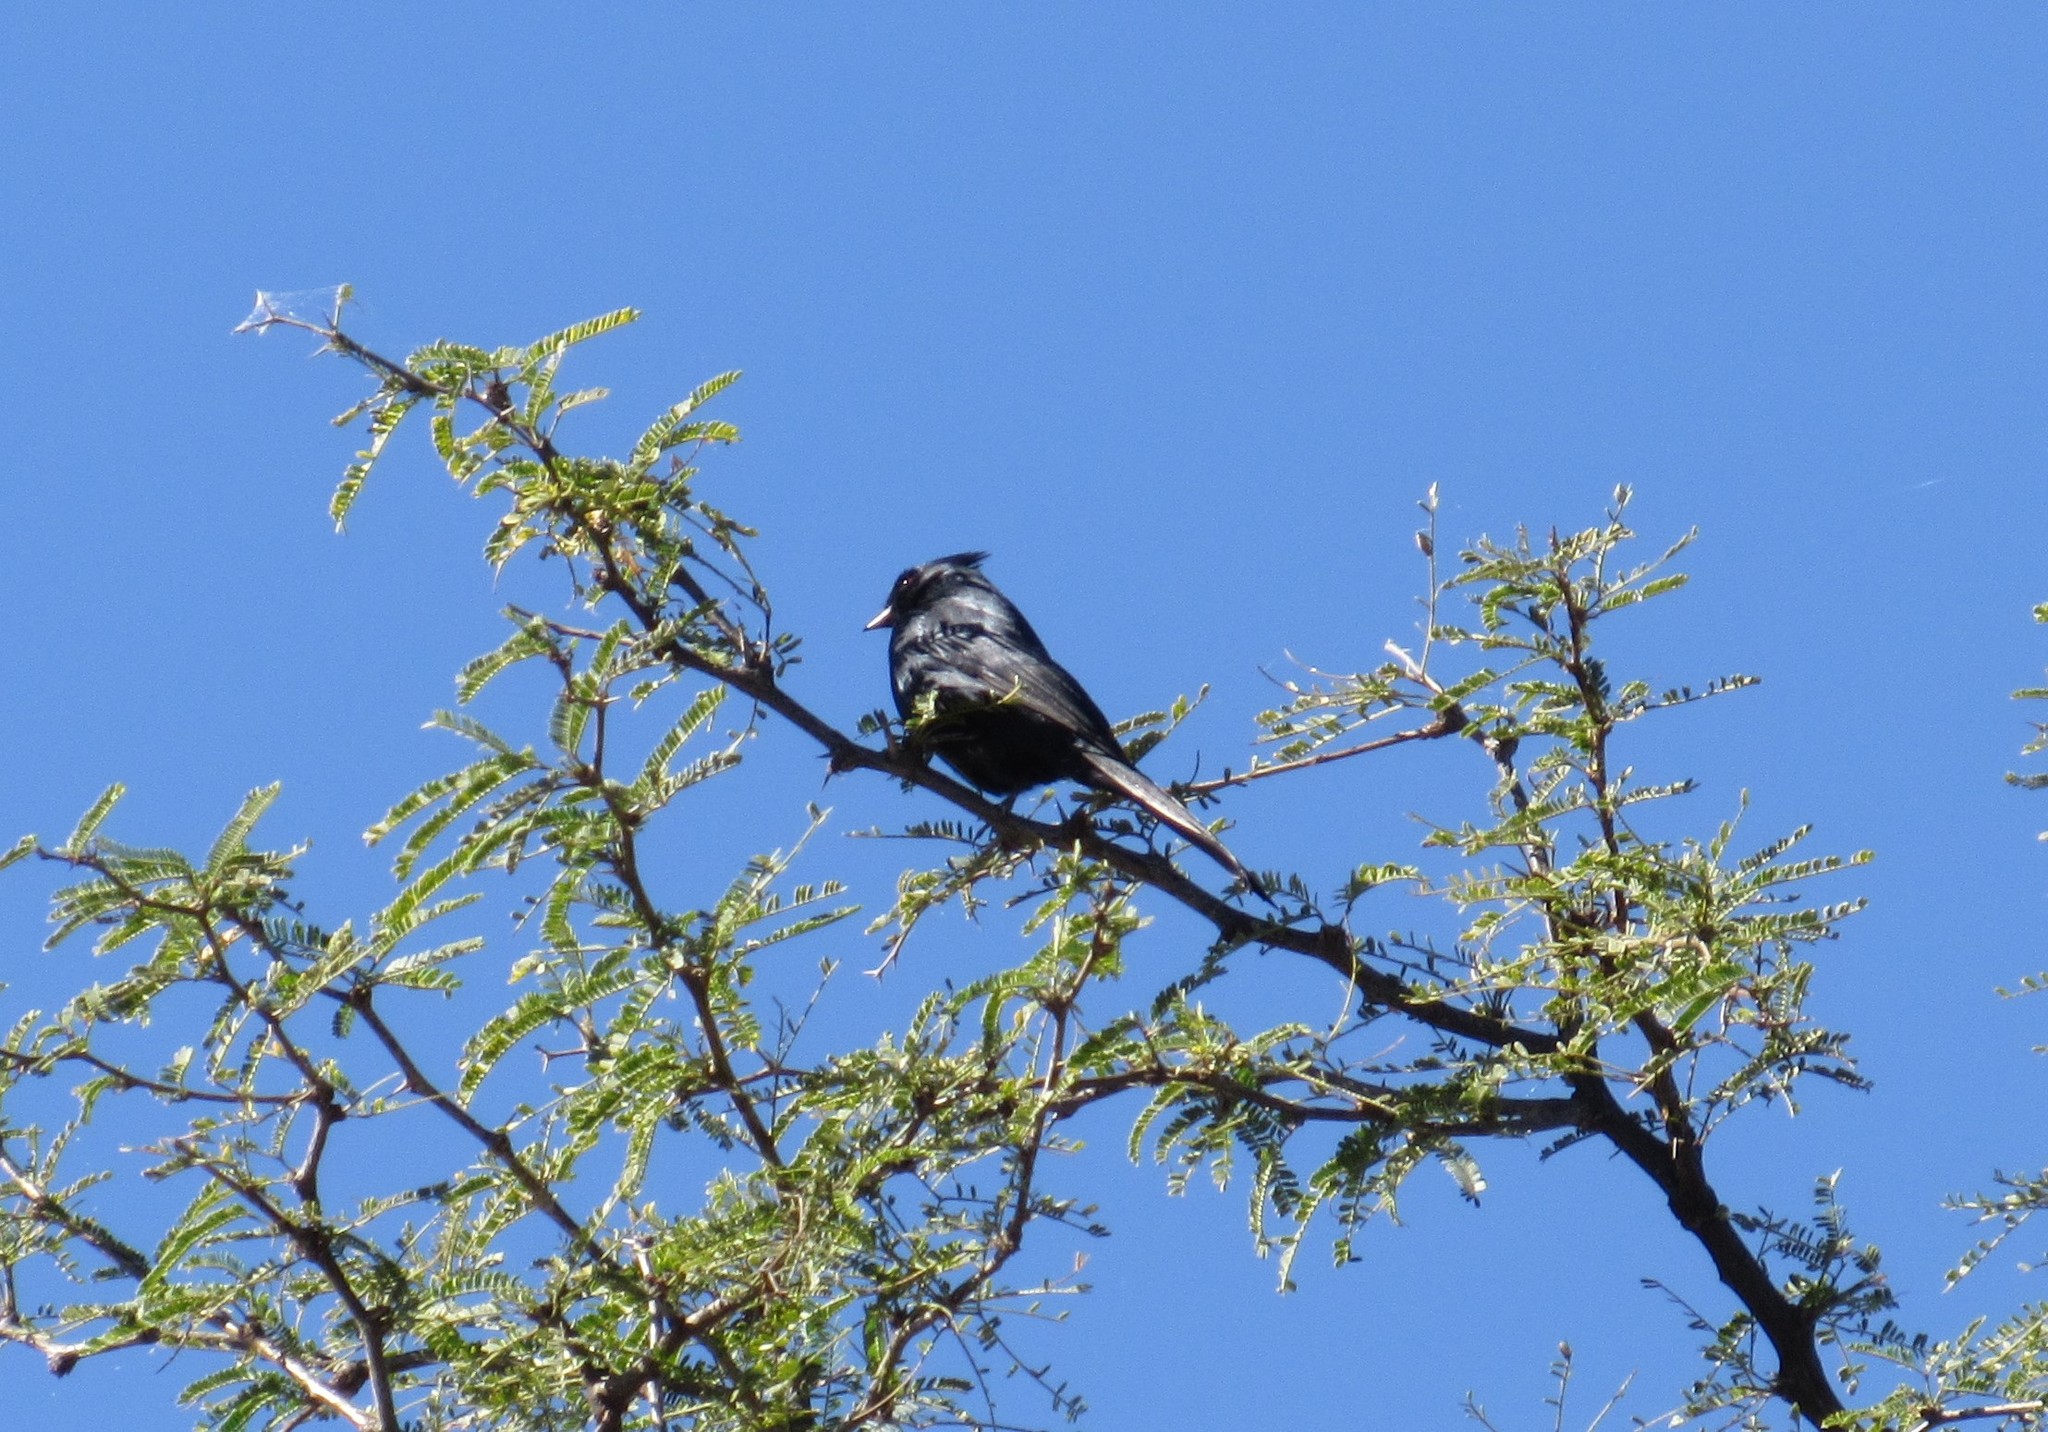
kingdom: Animalia
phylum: Chordata
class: Aves
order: Passeriformes
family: Ptilogonatidae
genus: Phainopepla
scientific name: Phainopepla nitens
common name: Phainopepla
